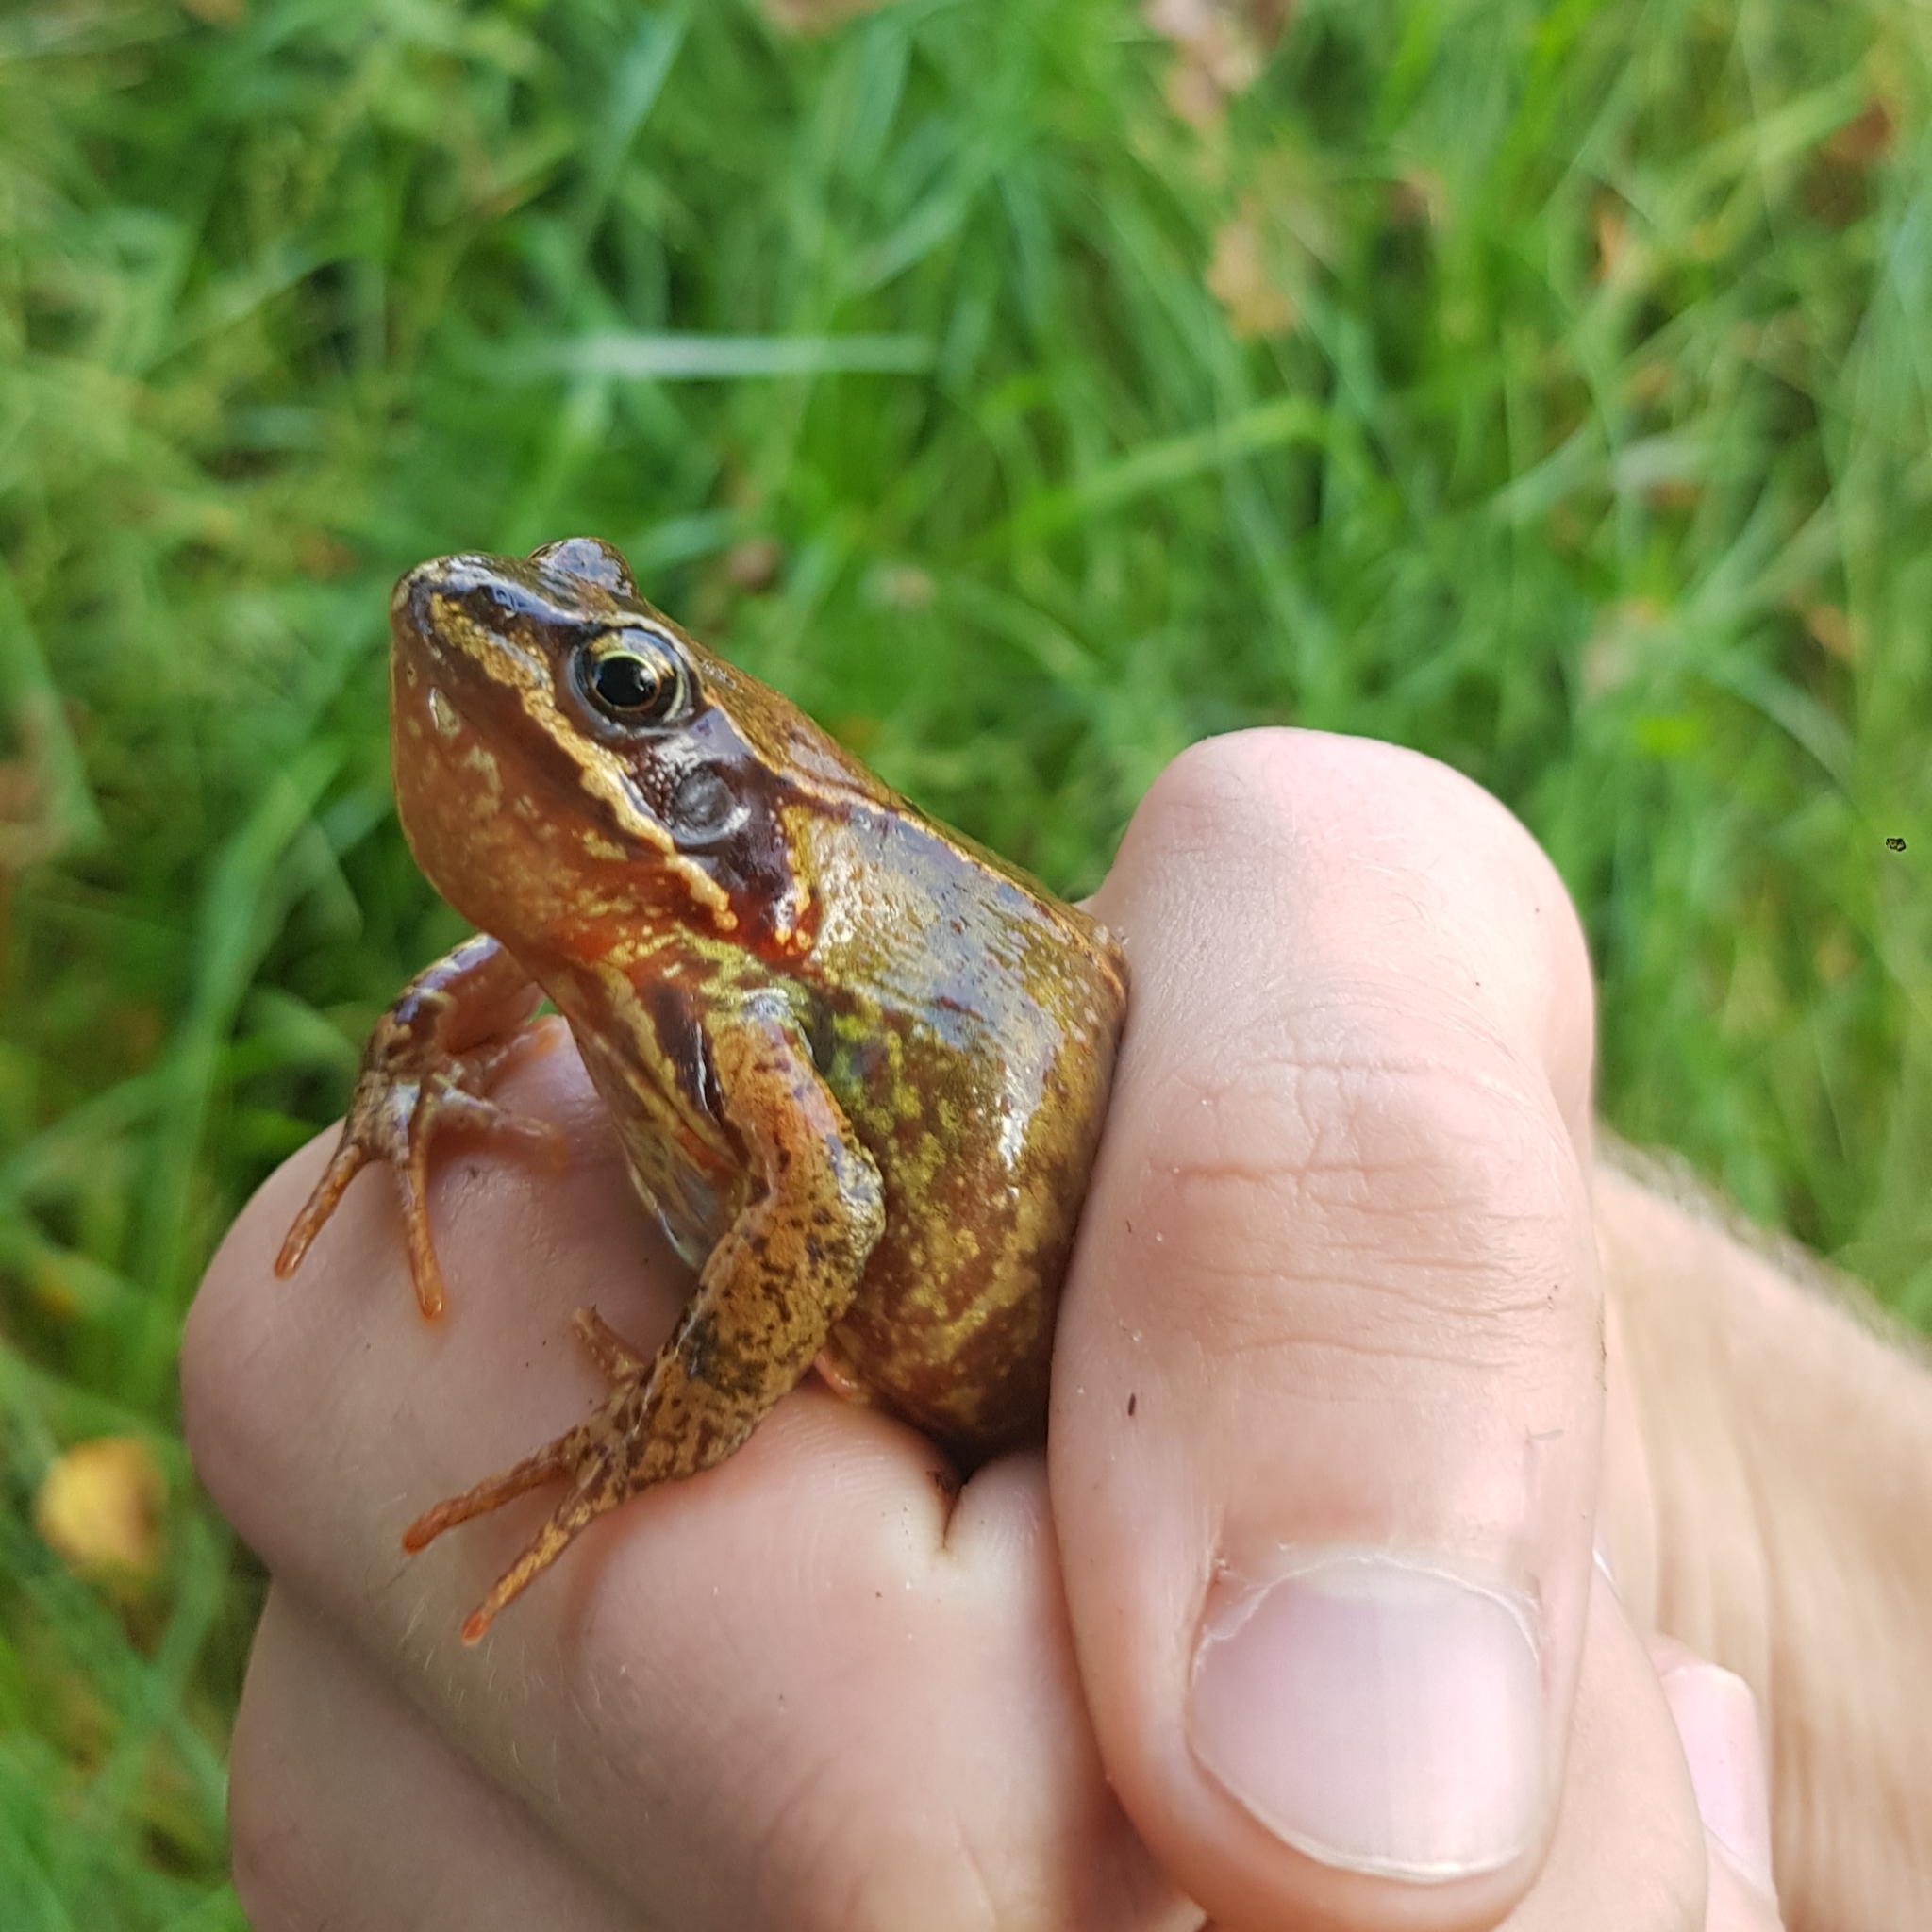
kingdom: Animalia
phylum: Chordata
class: Amphibia
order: Anura
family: Ranidae
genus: Rana
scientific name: Rana temporaria
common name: Common frog
